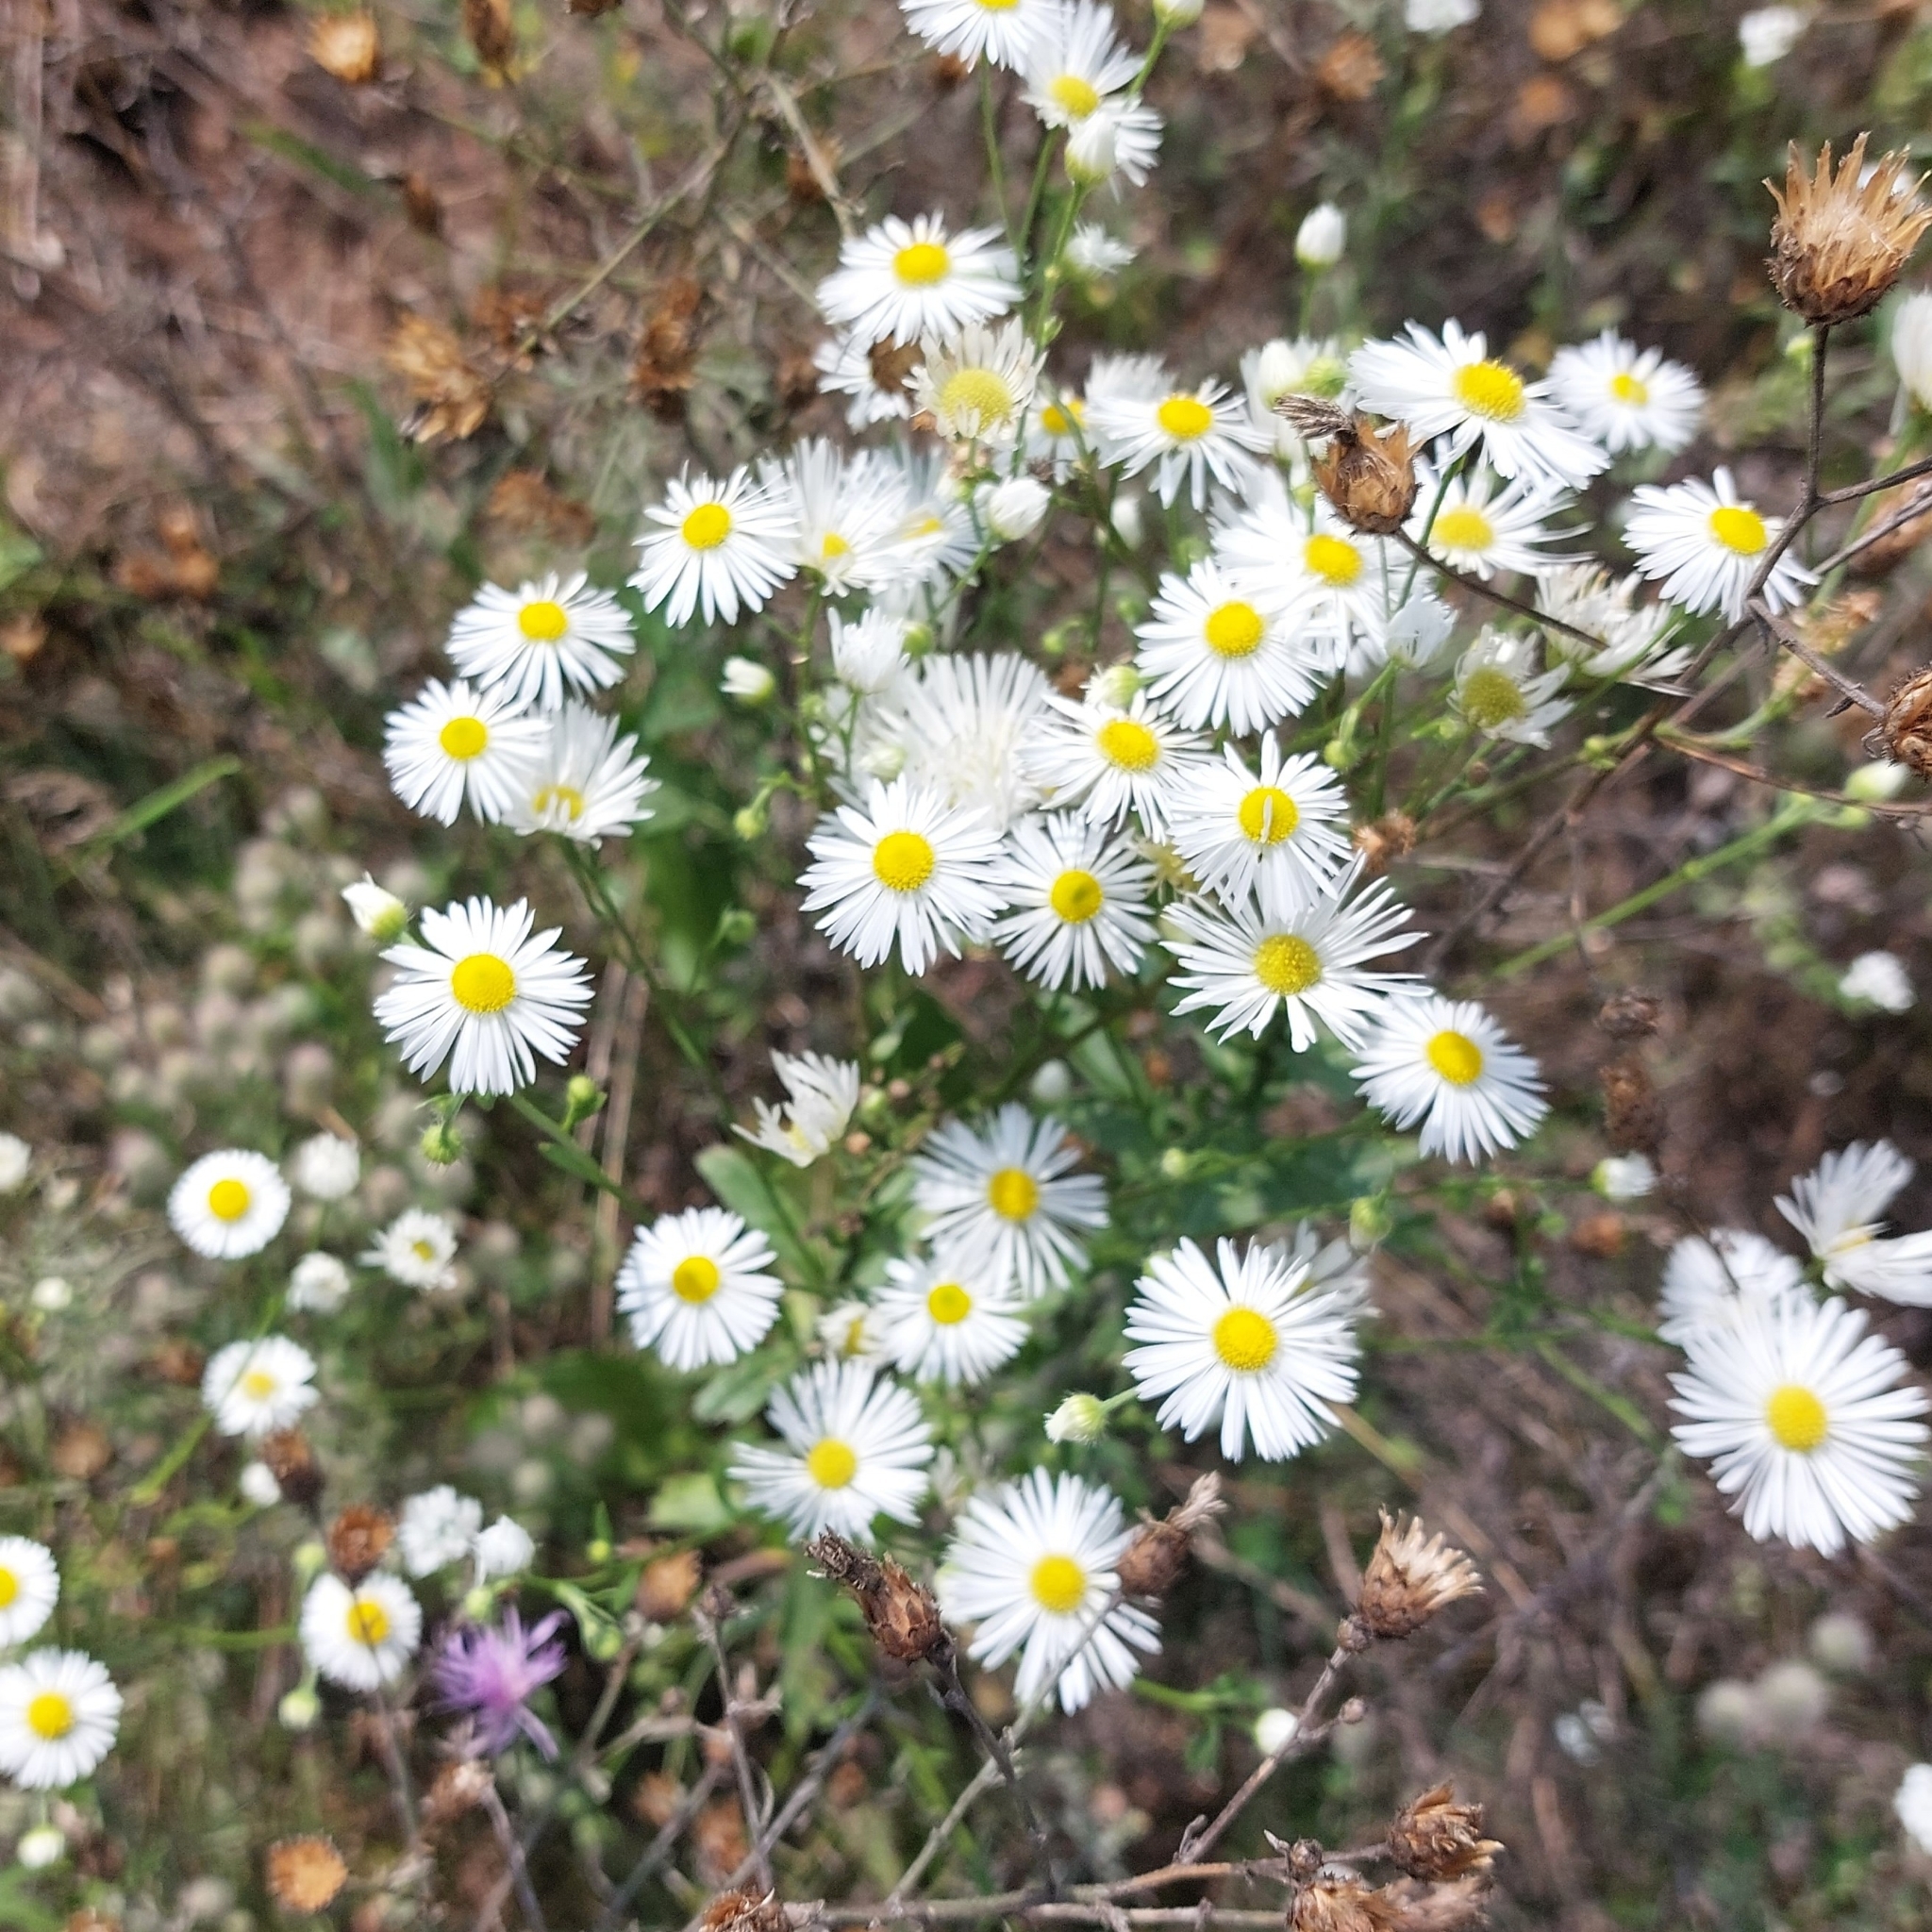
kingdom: Plantae
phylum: Tracheophyta
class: Magnoliopsida
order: Asterales
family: Asteraceae
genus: Erigeron
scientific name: Erigeron annuus
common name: Tall fleabane
